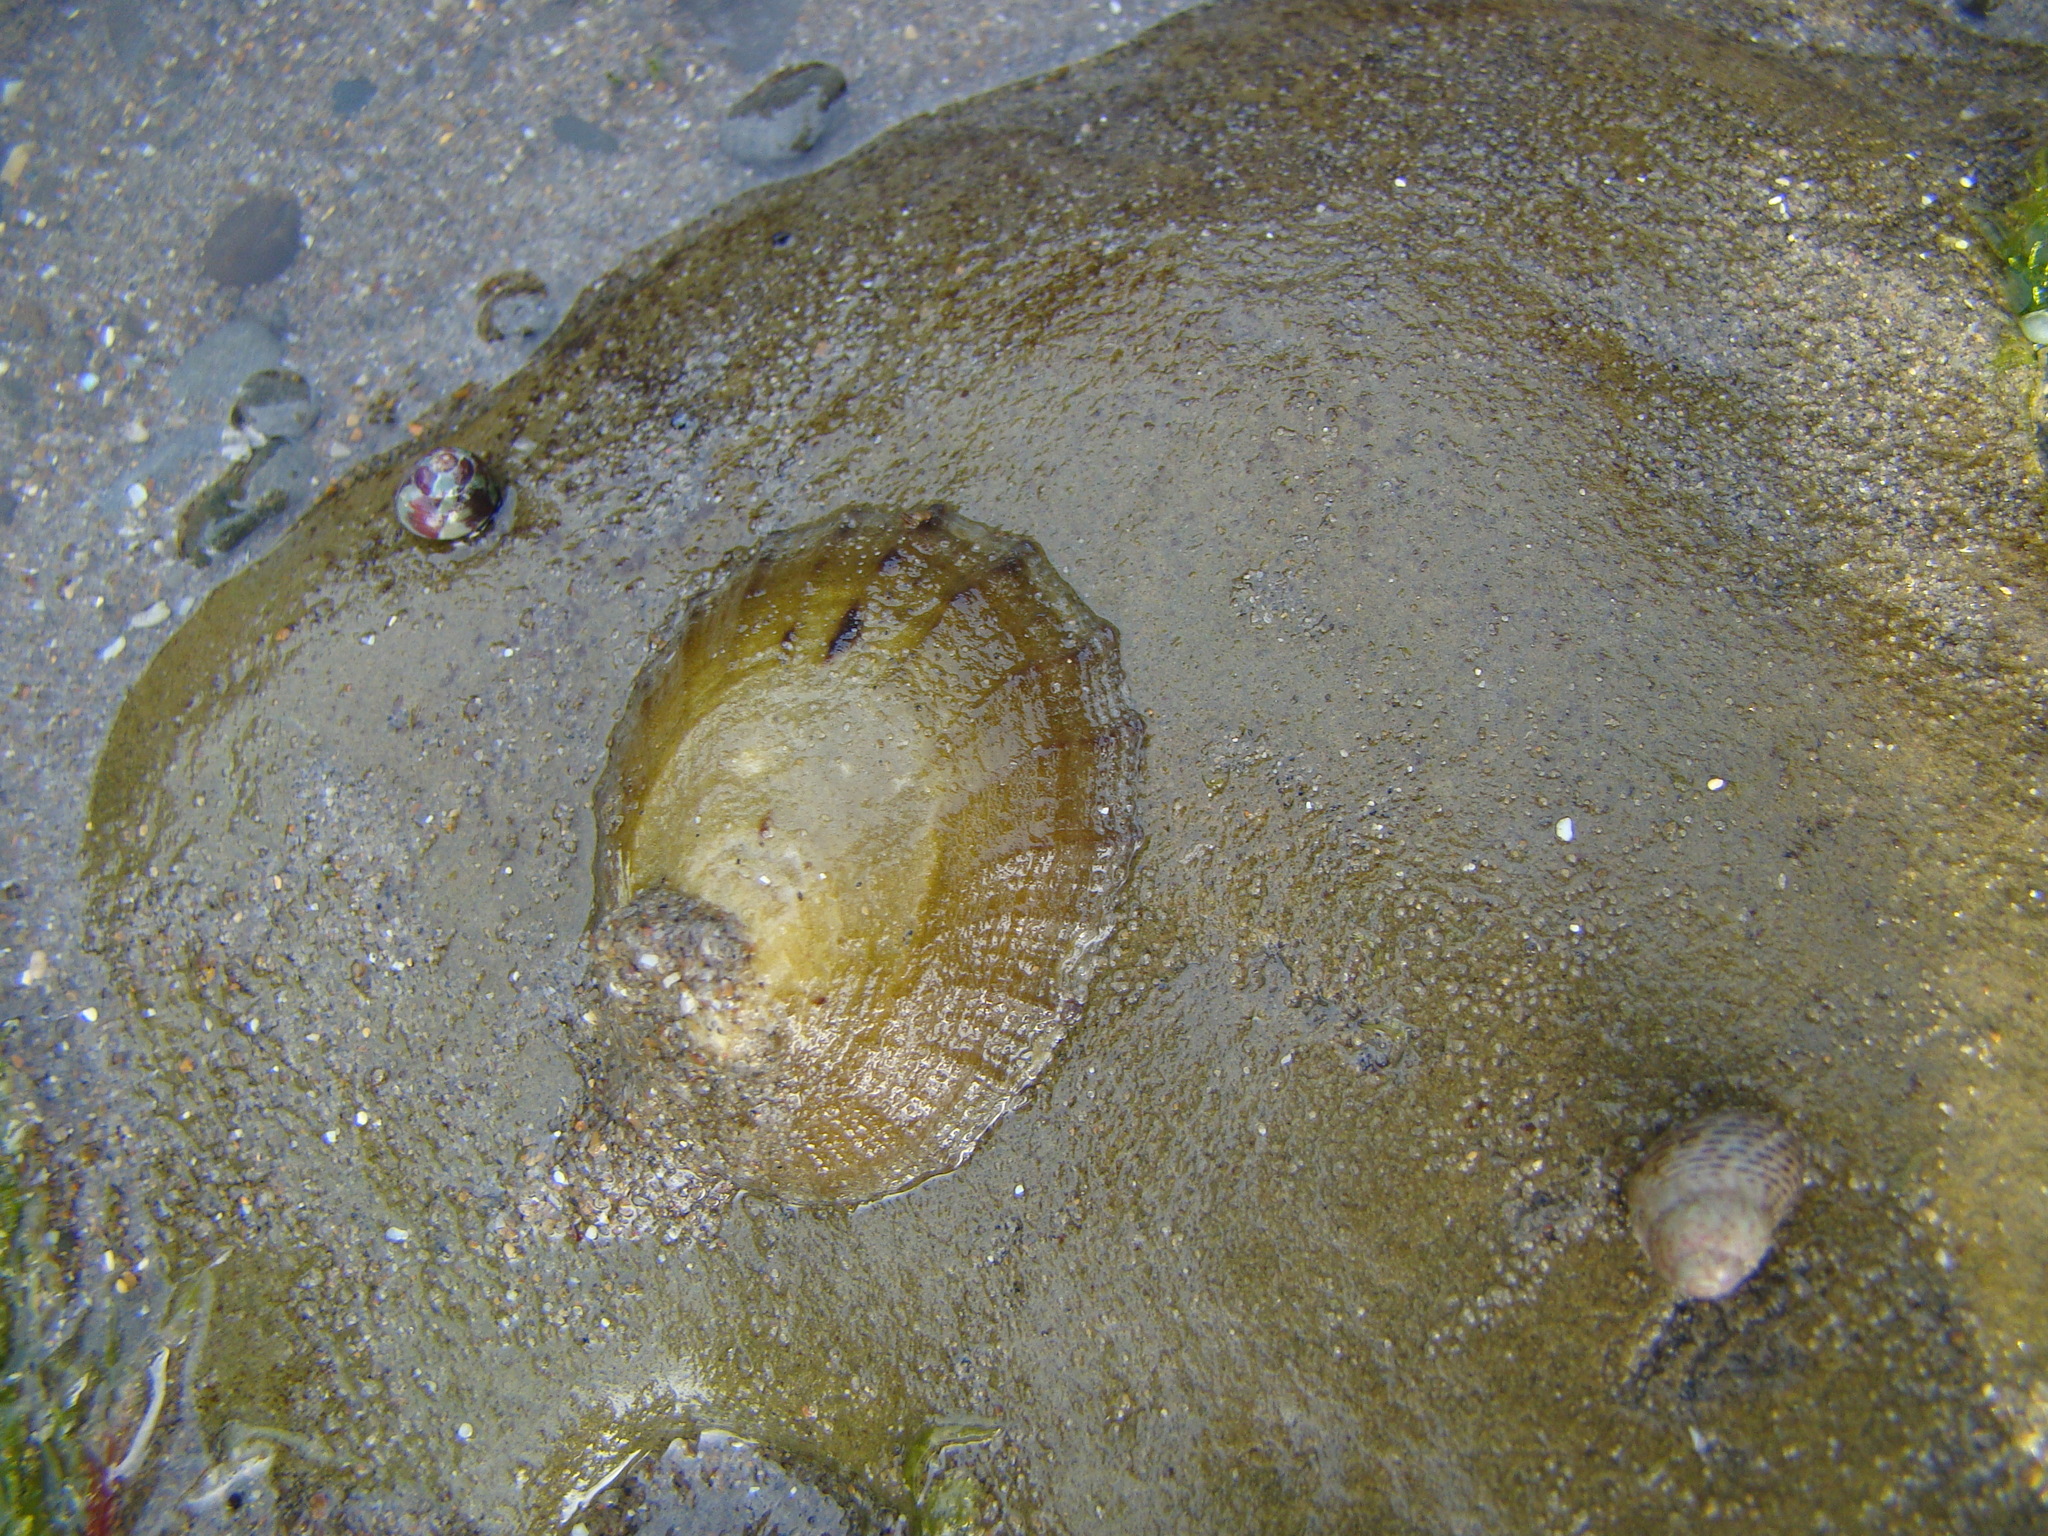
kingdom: Animalia
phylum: Mollusca
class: Gastropoda
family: Nacellidae
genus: Cellana
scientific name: Cellana radians
